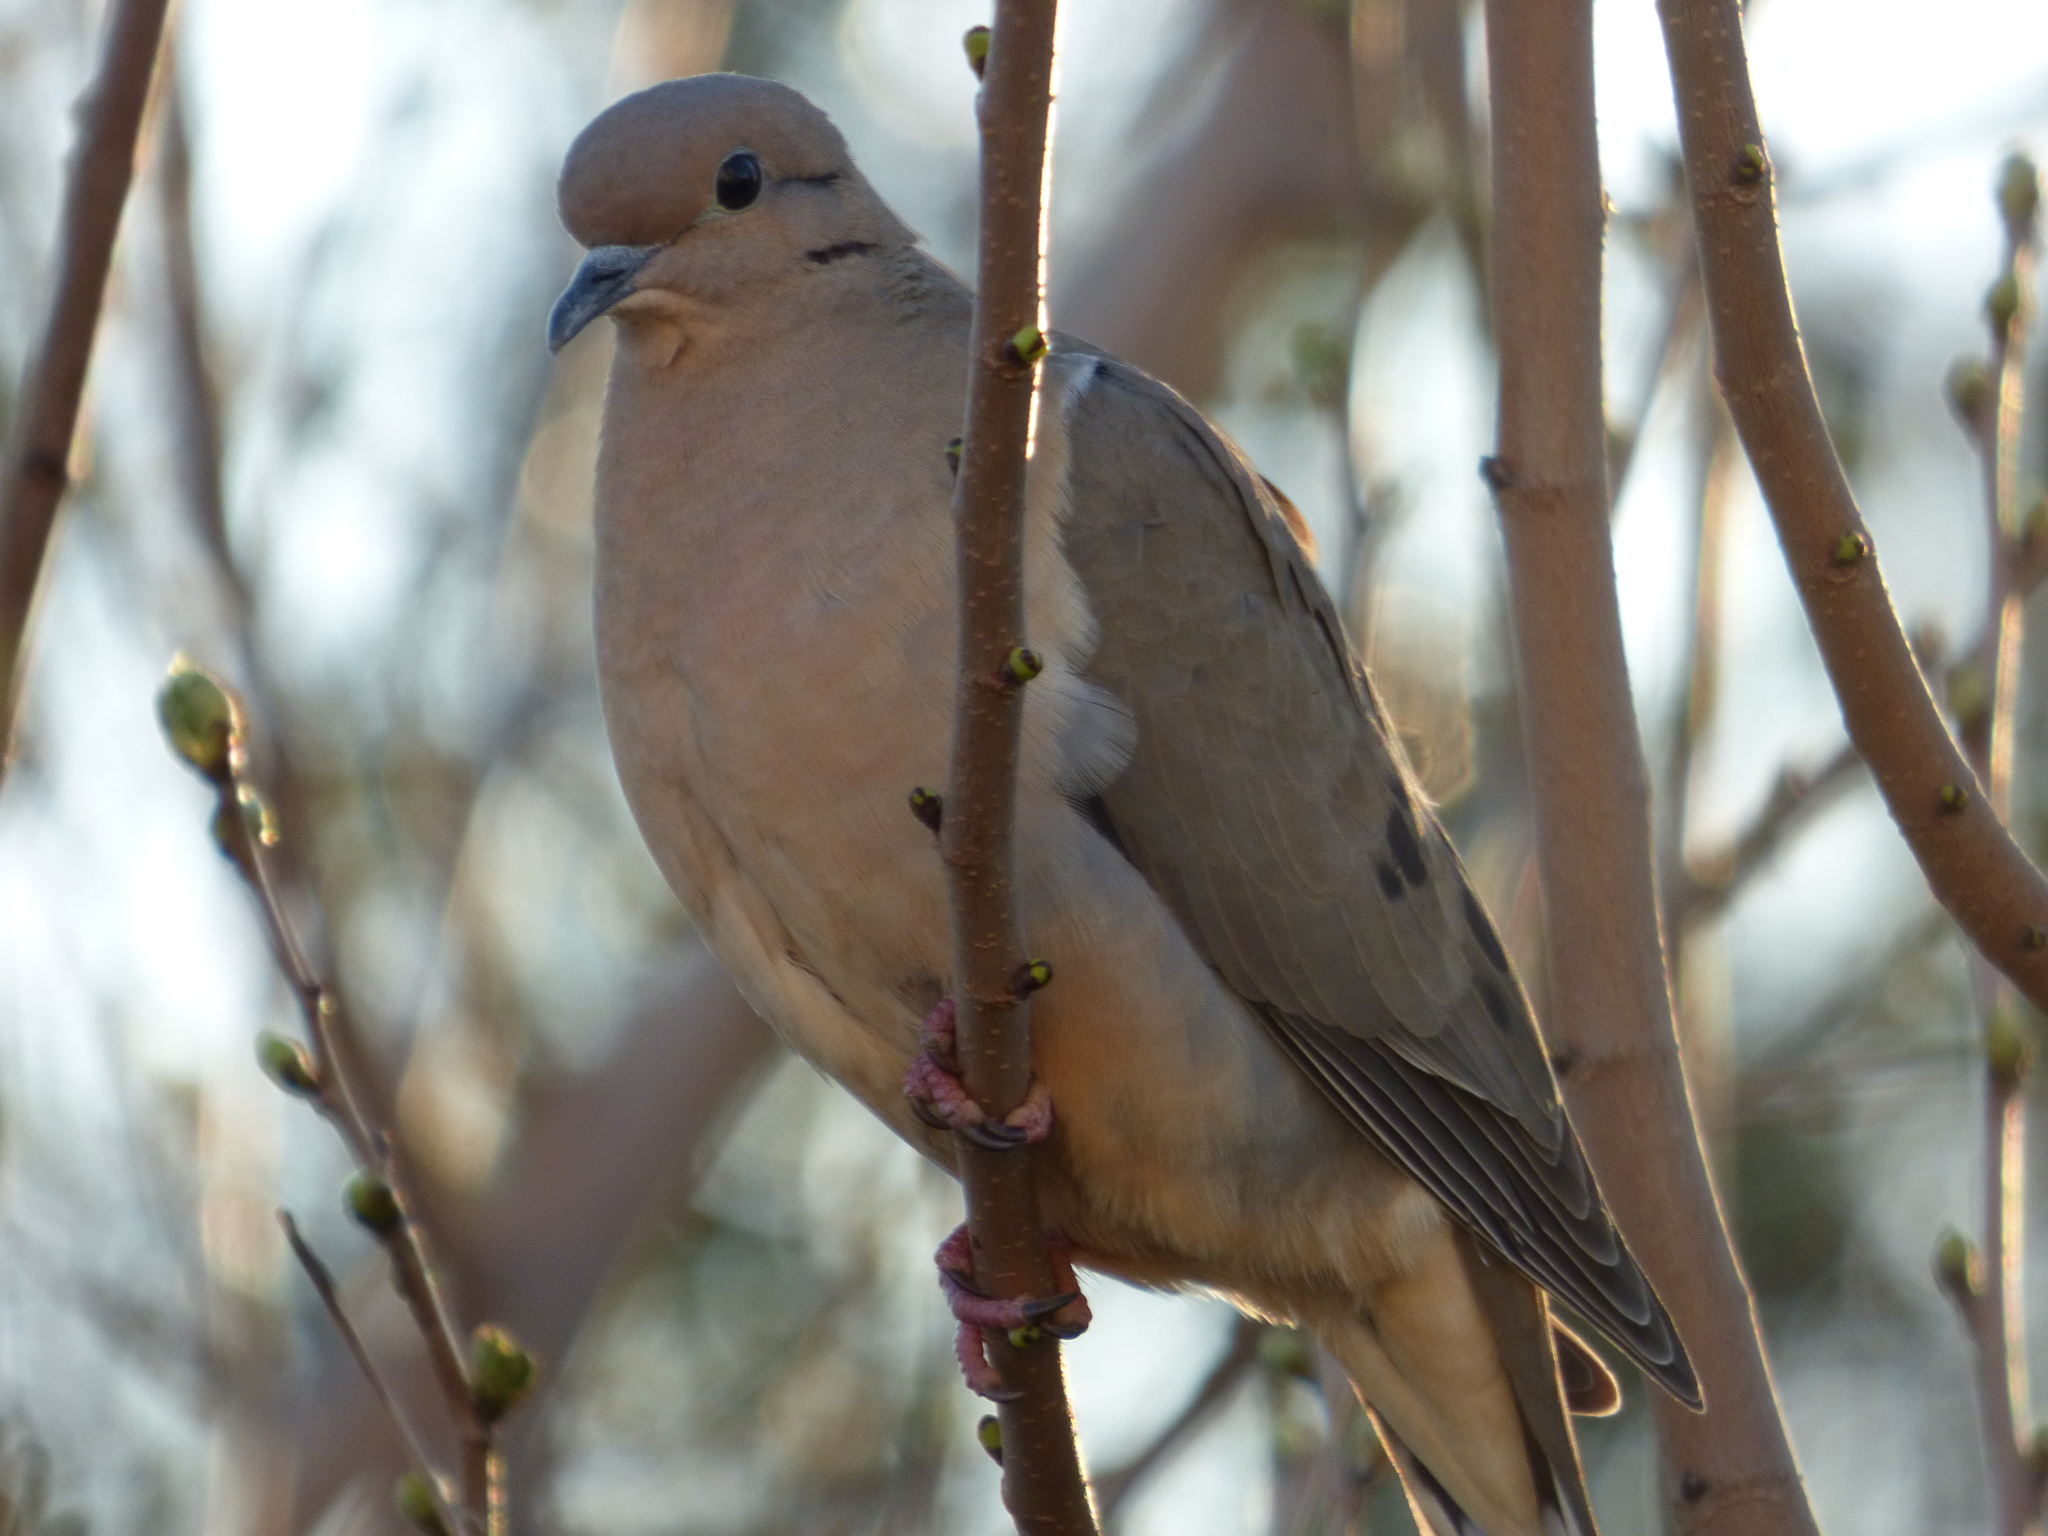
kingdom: Animalia
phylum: Chordata
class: Aves
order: Columbiformes
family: Columbidae
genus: Zenaida
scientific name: Zenaida auriculata
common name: Eared dove
